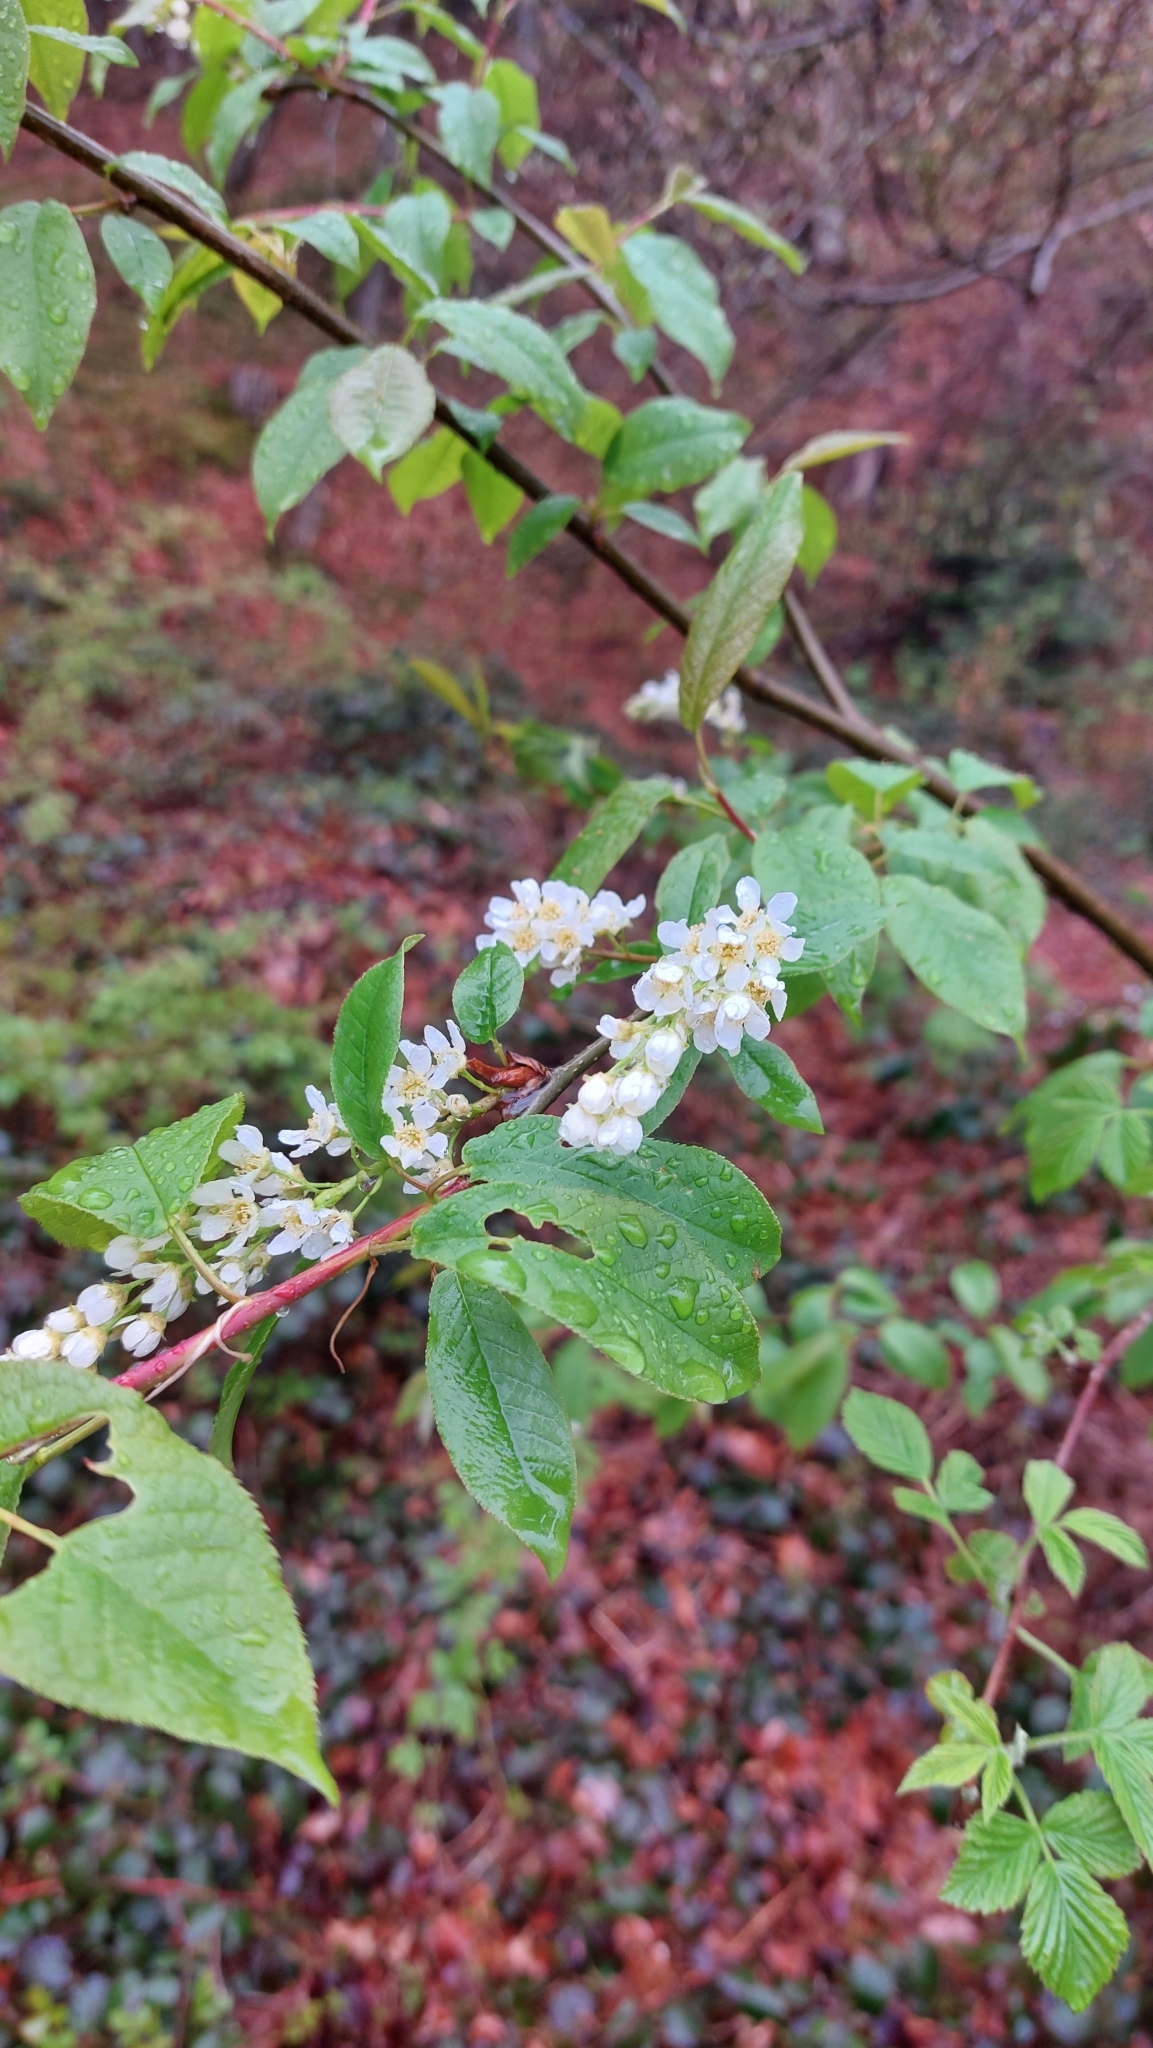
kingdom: Plantae
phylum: Tracheophyta
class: Magnoliopsida
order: Rosales
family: Rosaceae
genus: Prunus
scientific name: Prunus padus
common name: Bird cherry
